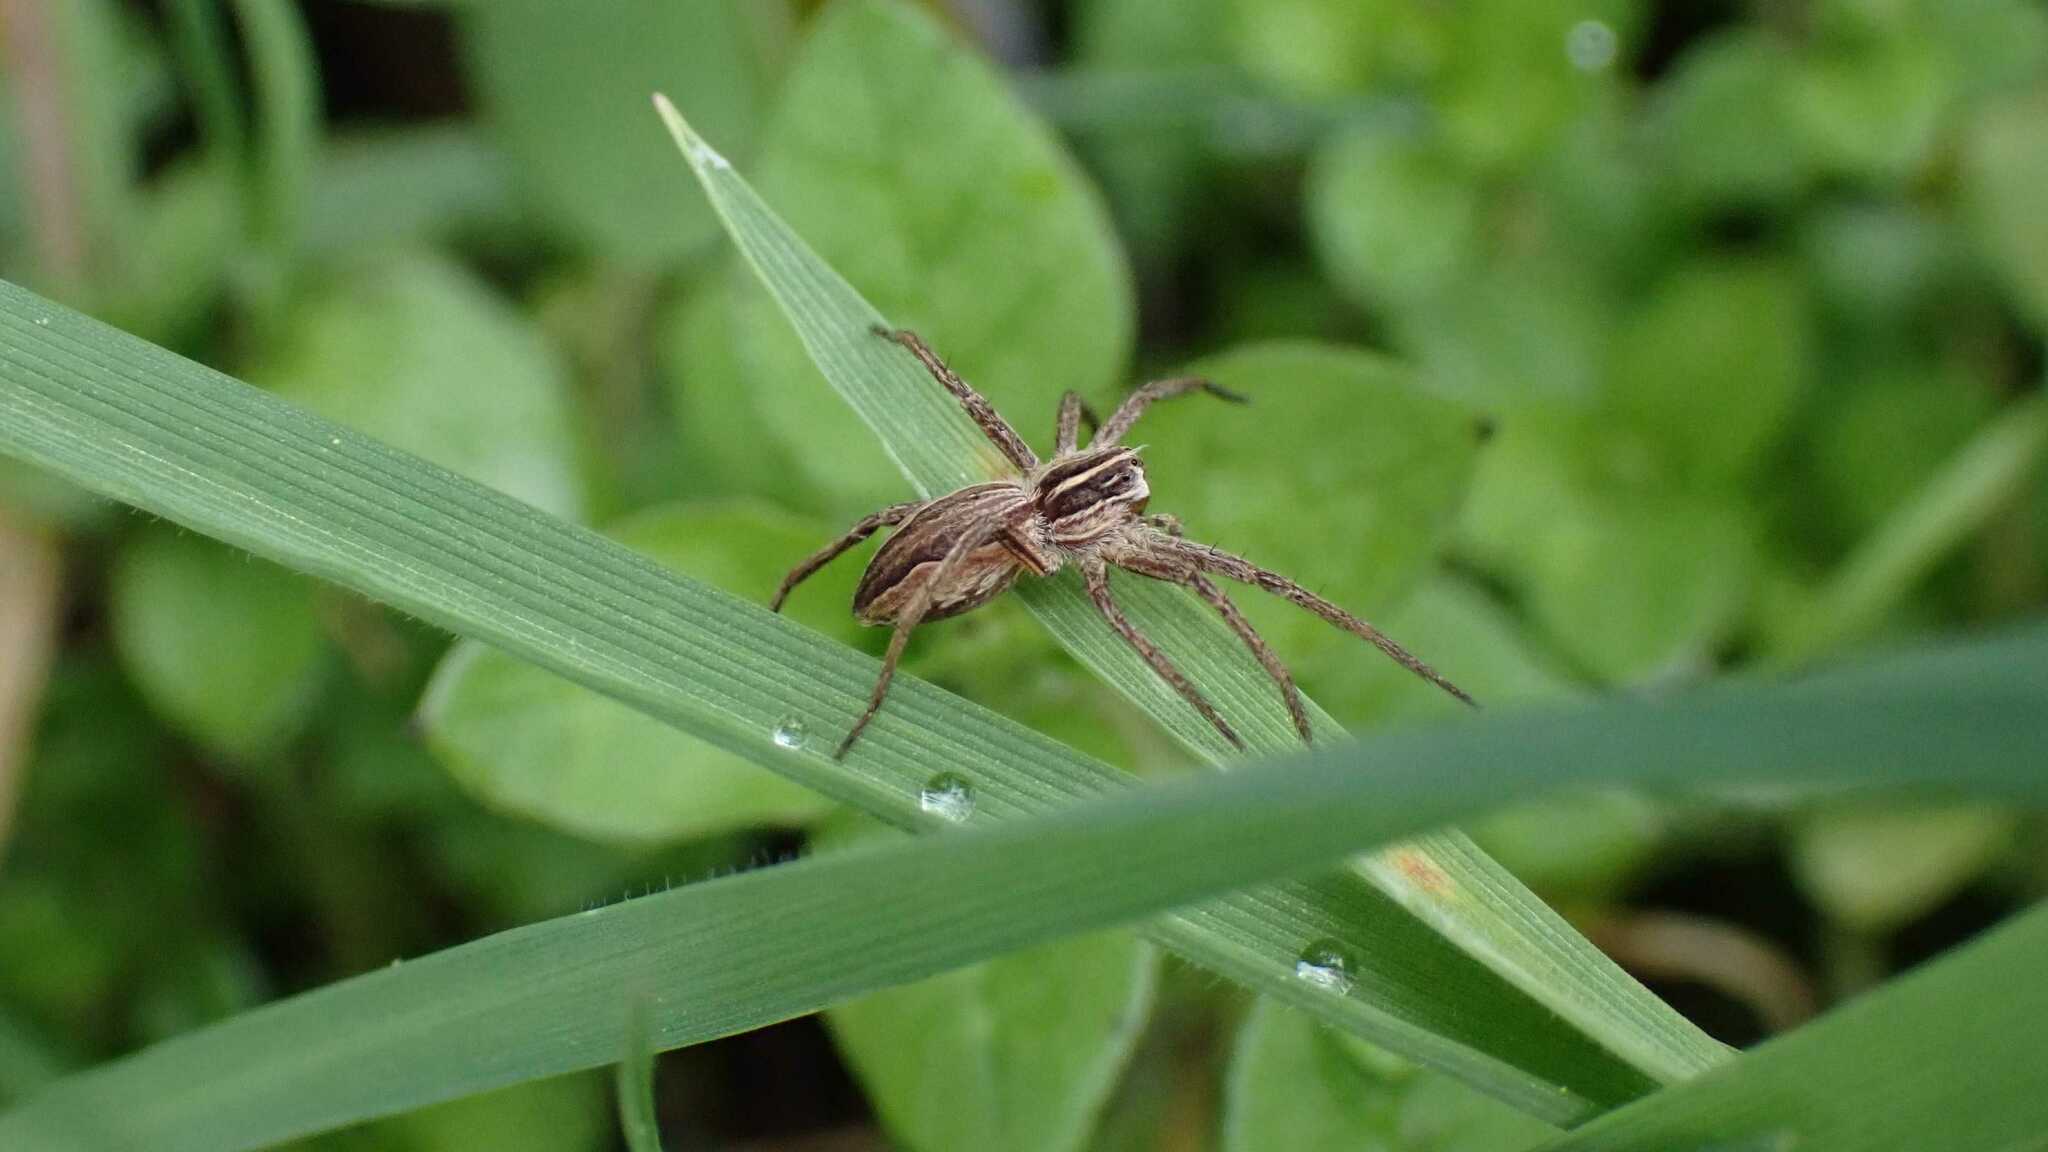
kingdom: Animalia
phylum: Arthropoda
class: Arachnida
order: Araneae
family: Pisauridae
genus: Pisaura
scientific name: Pisaura mirabilis
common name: Tent spider
